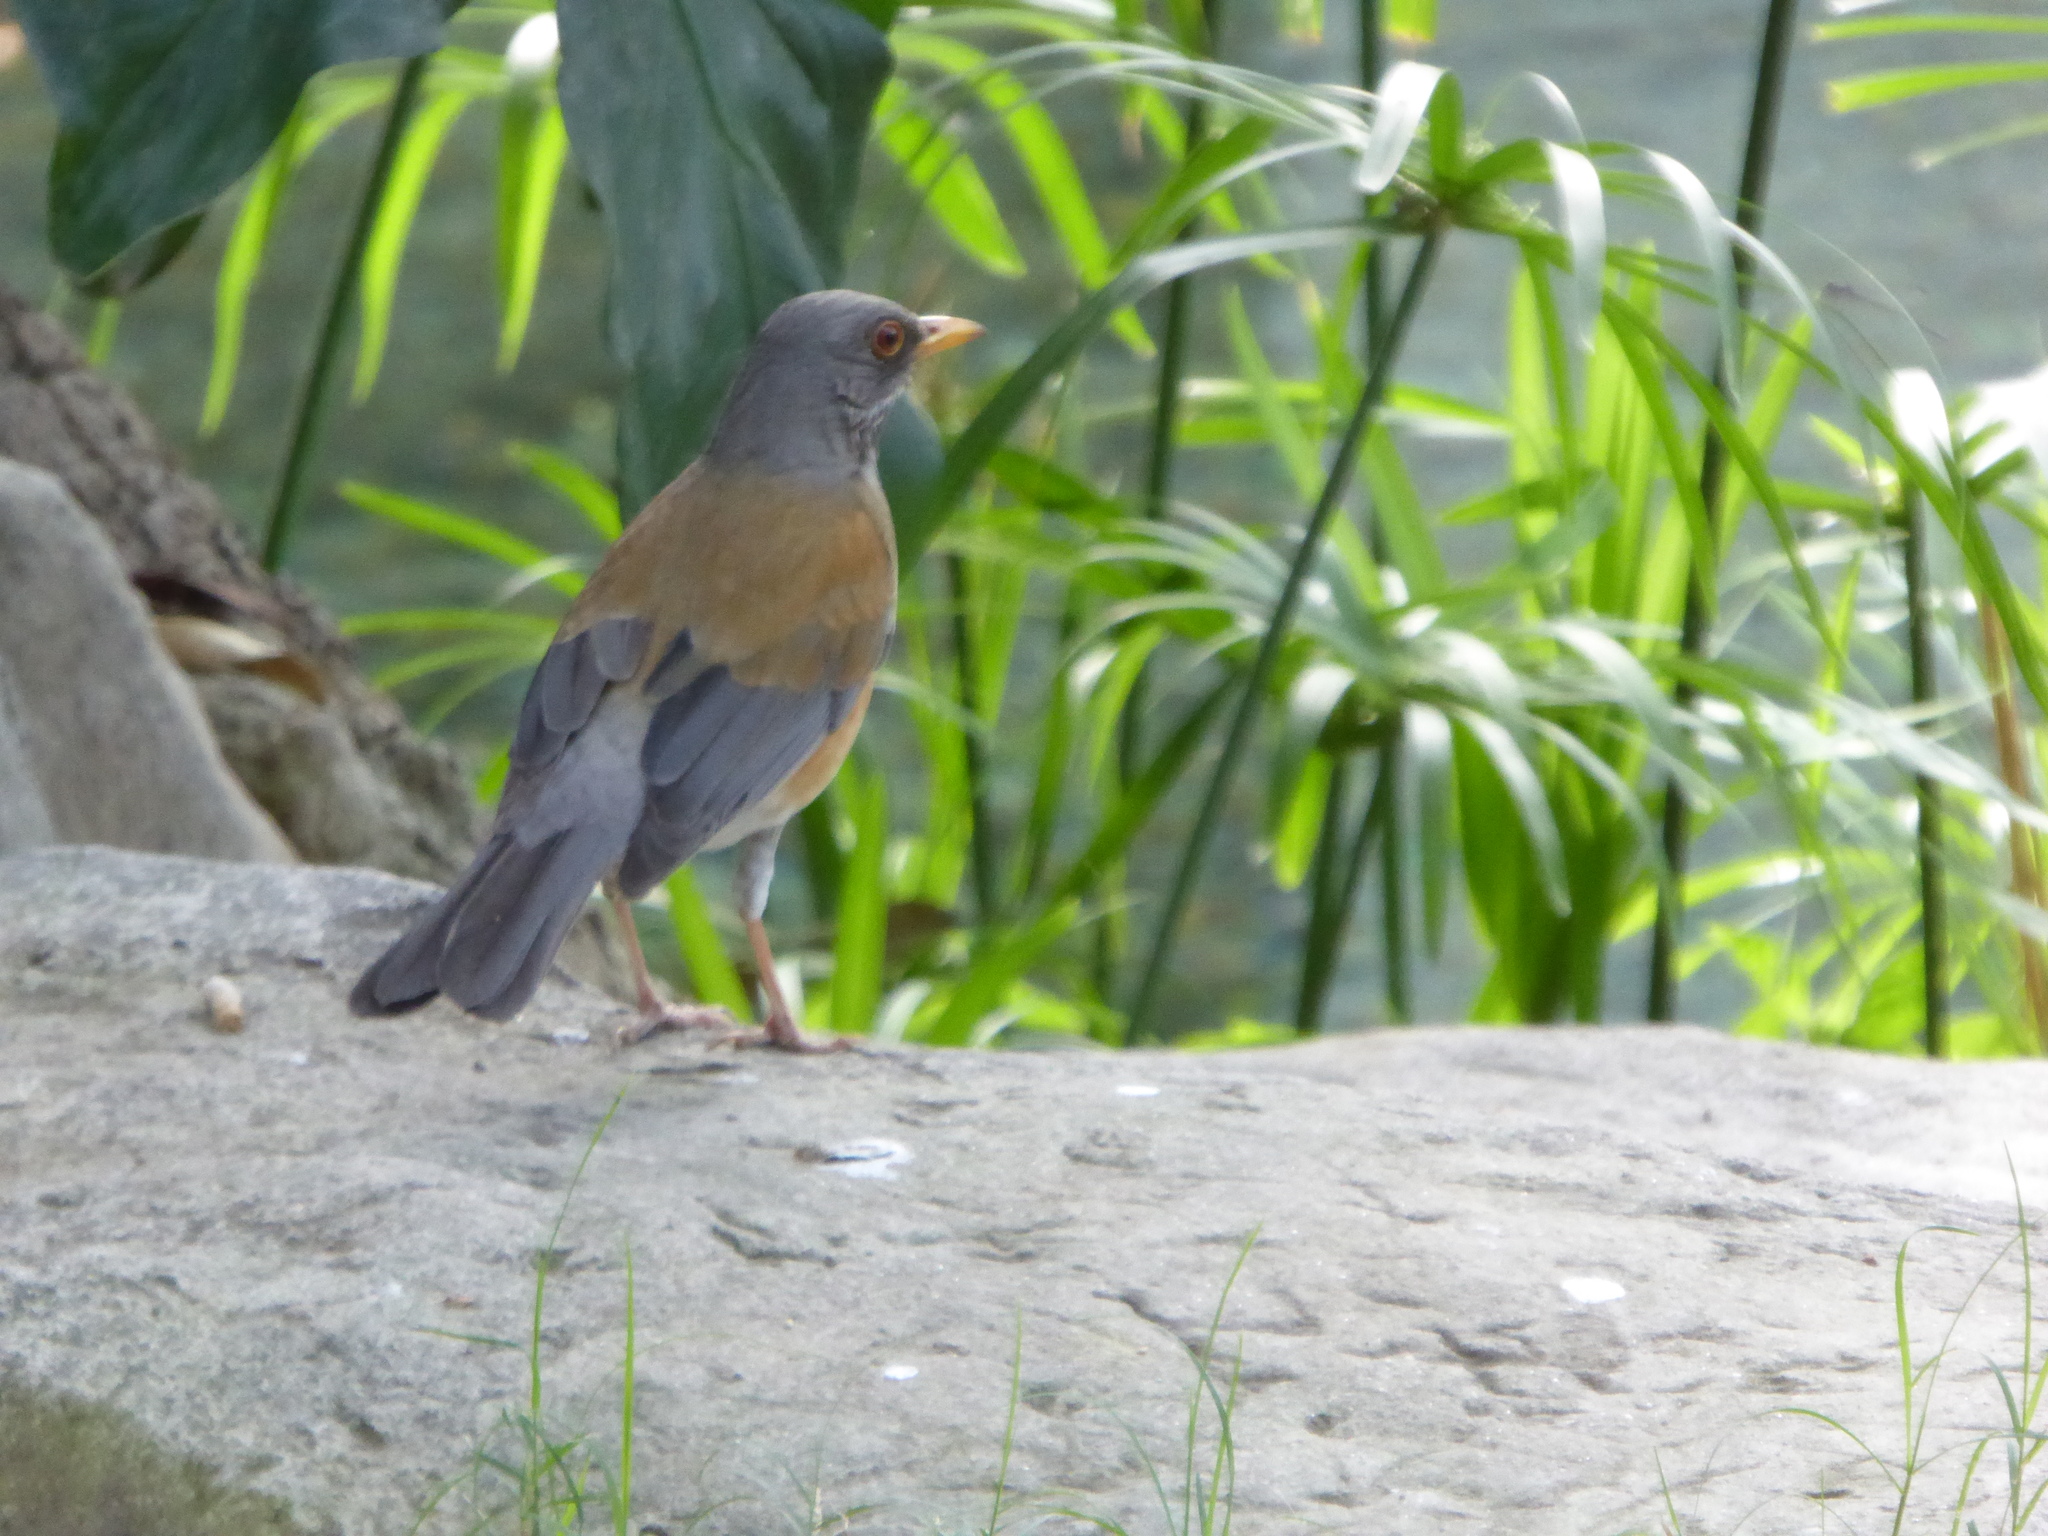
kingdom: Animalia
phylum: Chordata
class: Aves
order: Passeriformes
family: Turdidae
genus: Turdus
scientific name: Turdus rufopalliatus
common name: Rufous-backed robin
